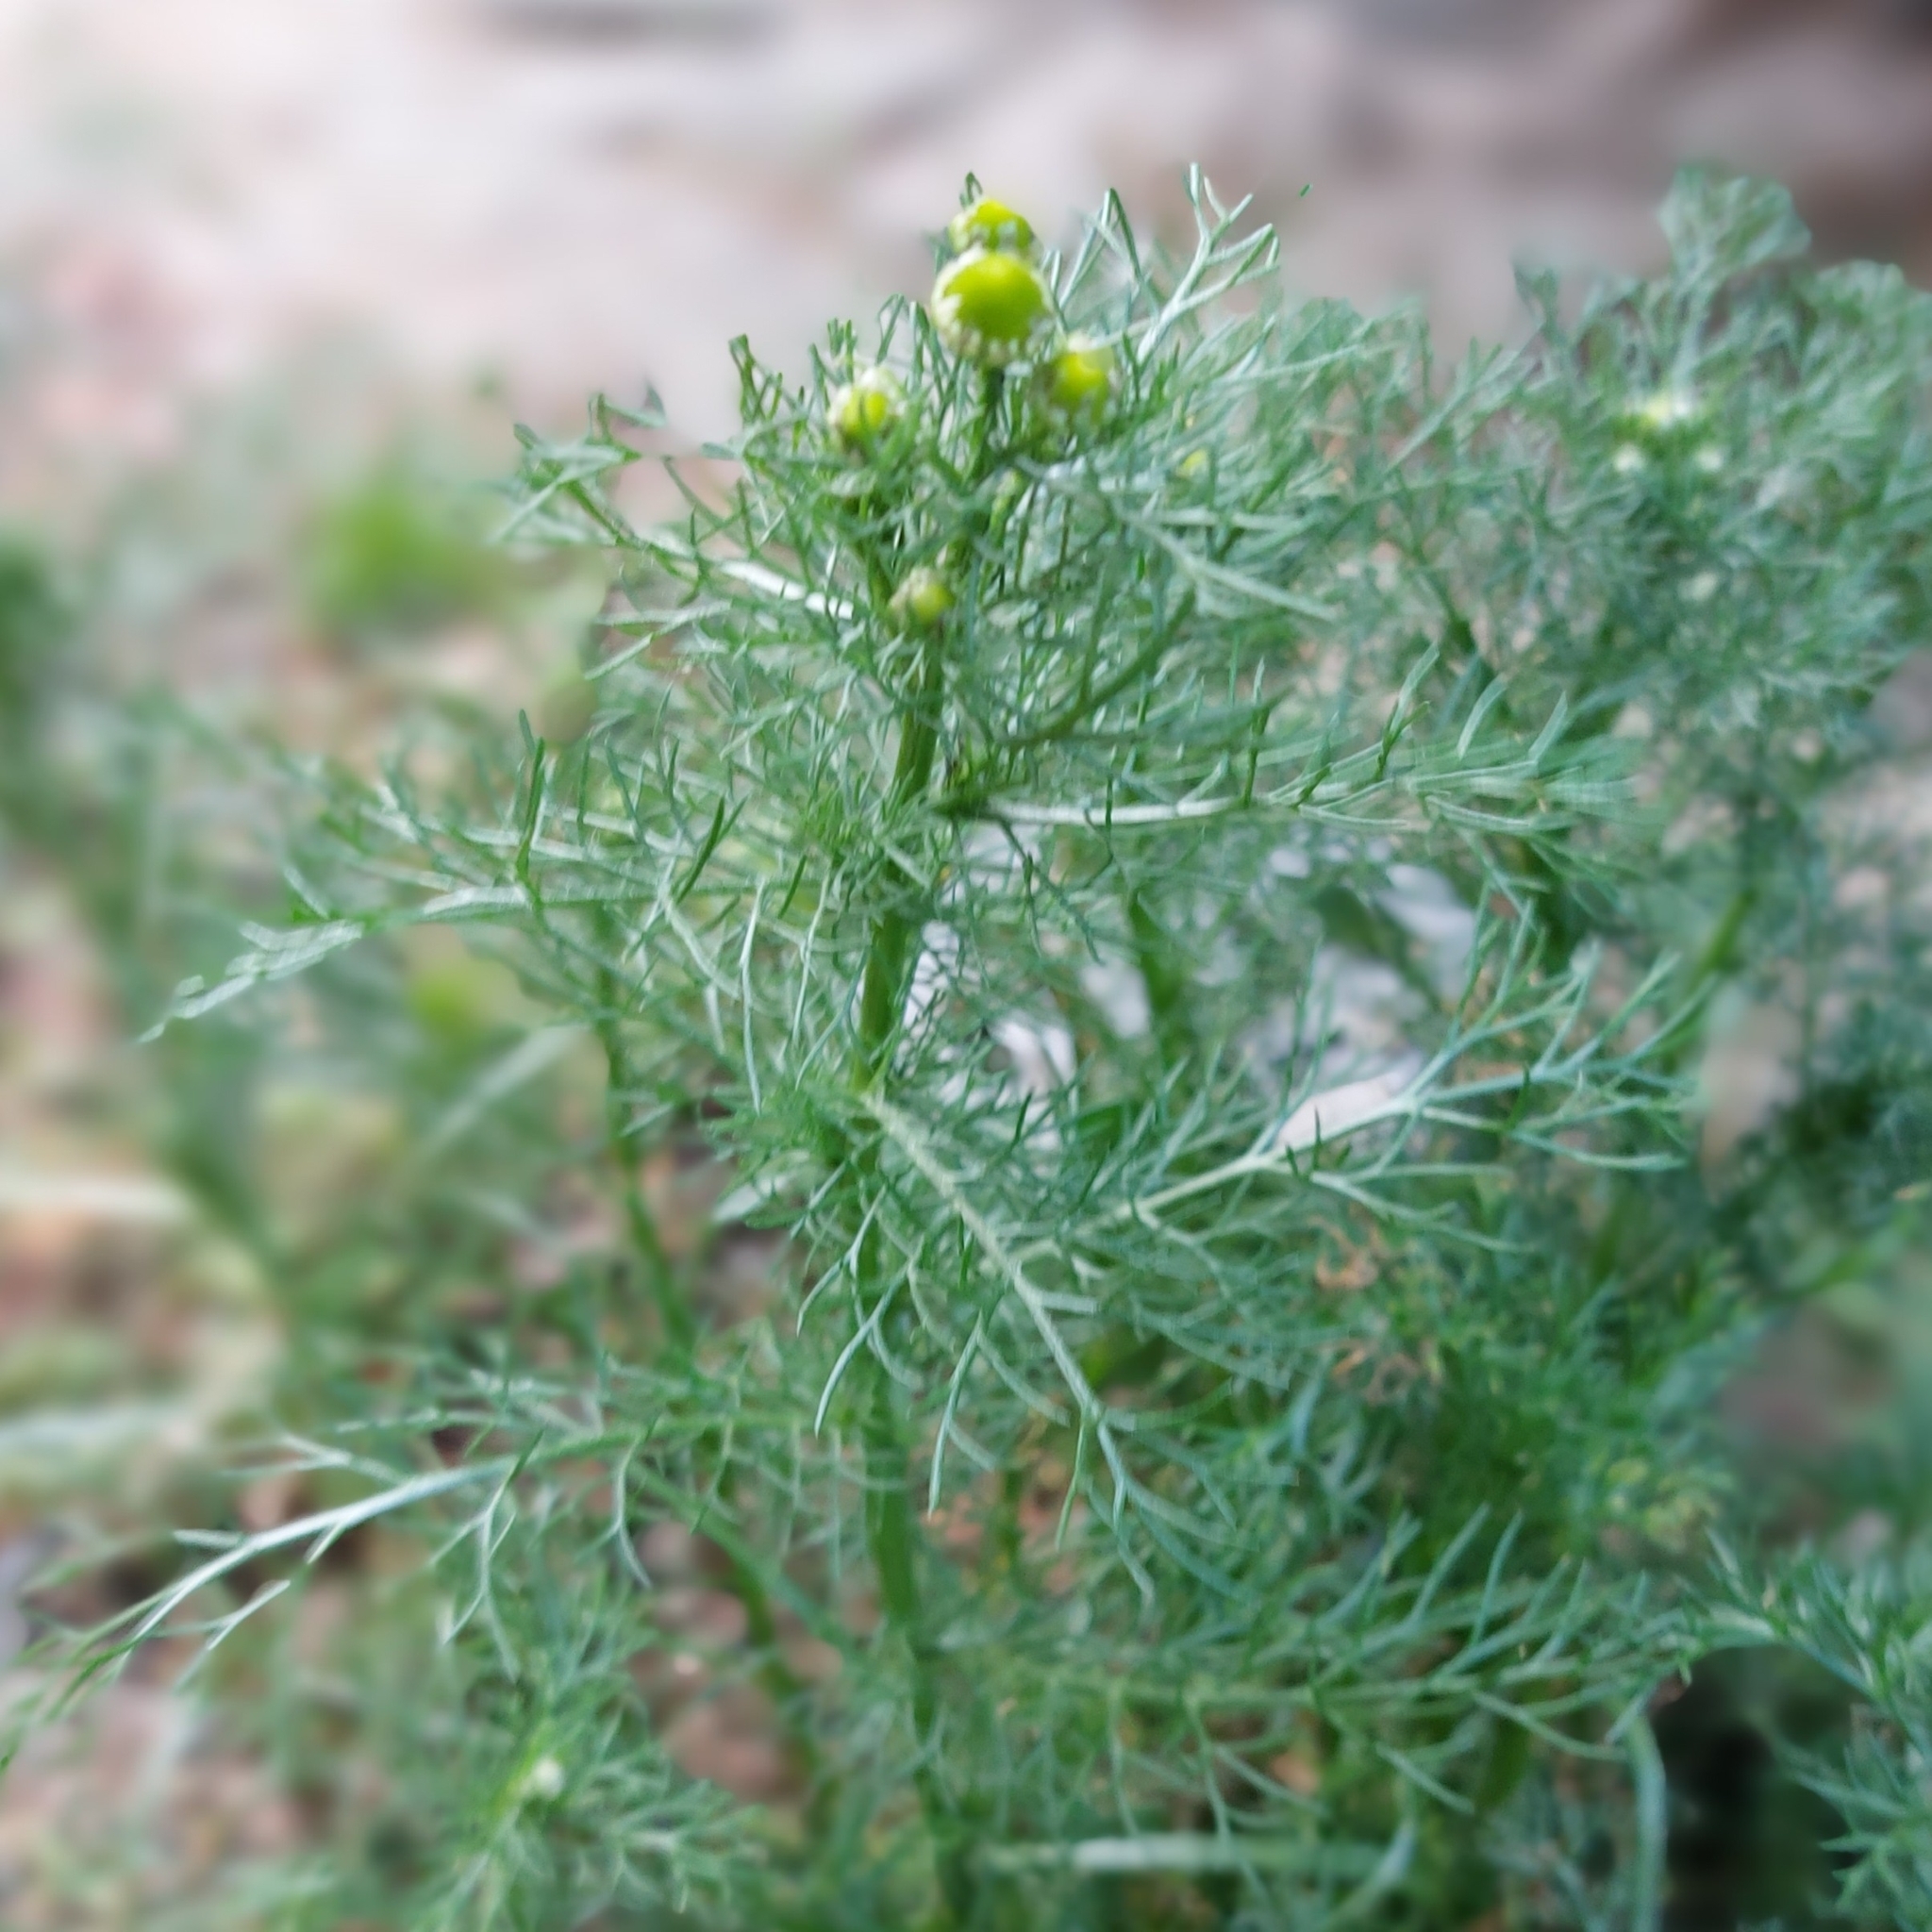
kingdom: Plantae
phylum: Tracheophyta
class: Magnoliopsida
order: Asterales
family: Asteraceae
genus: Matricaria
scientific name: Matricaria discoidea
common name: Disc mayweed
